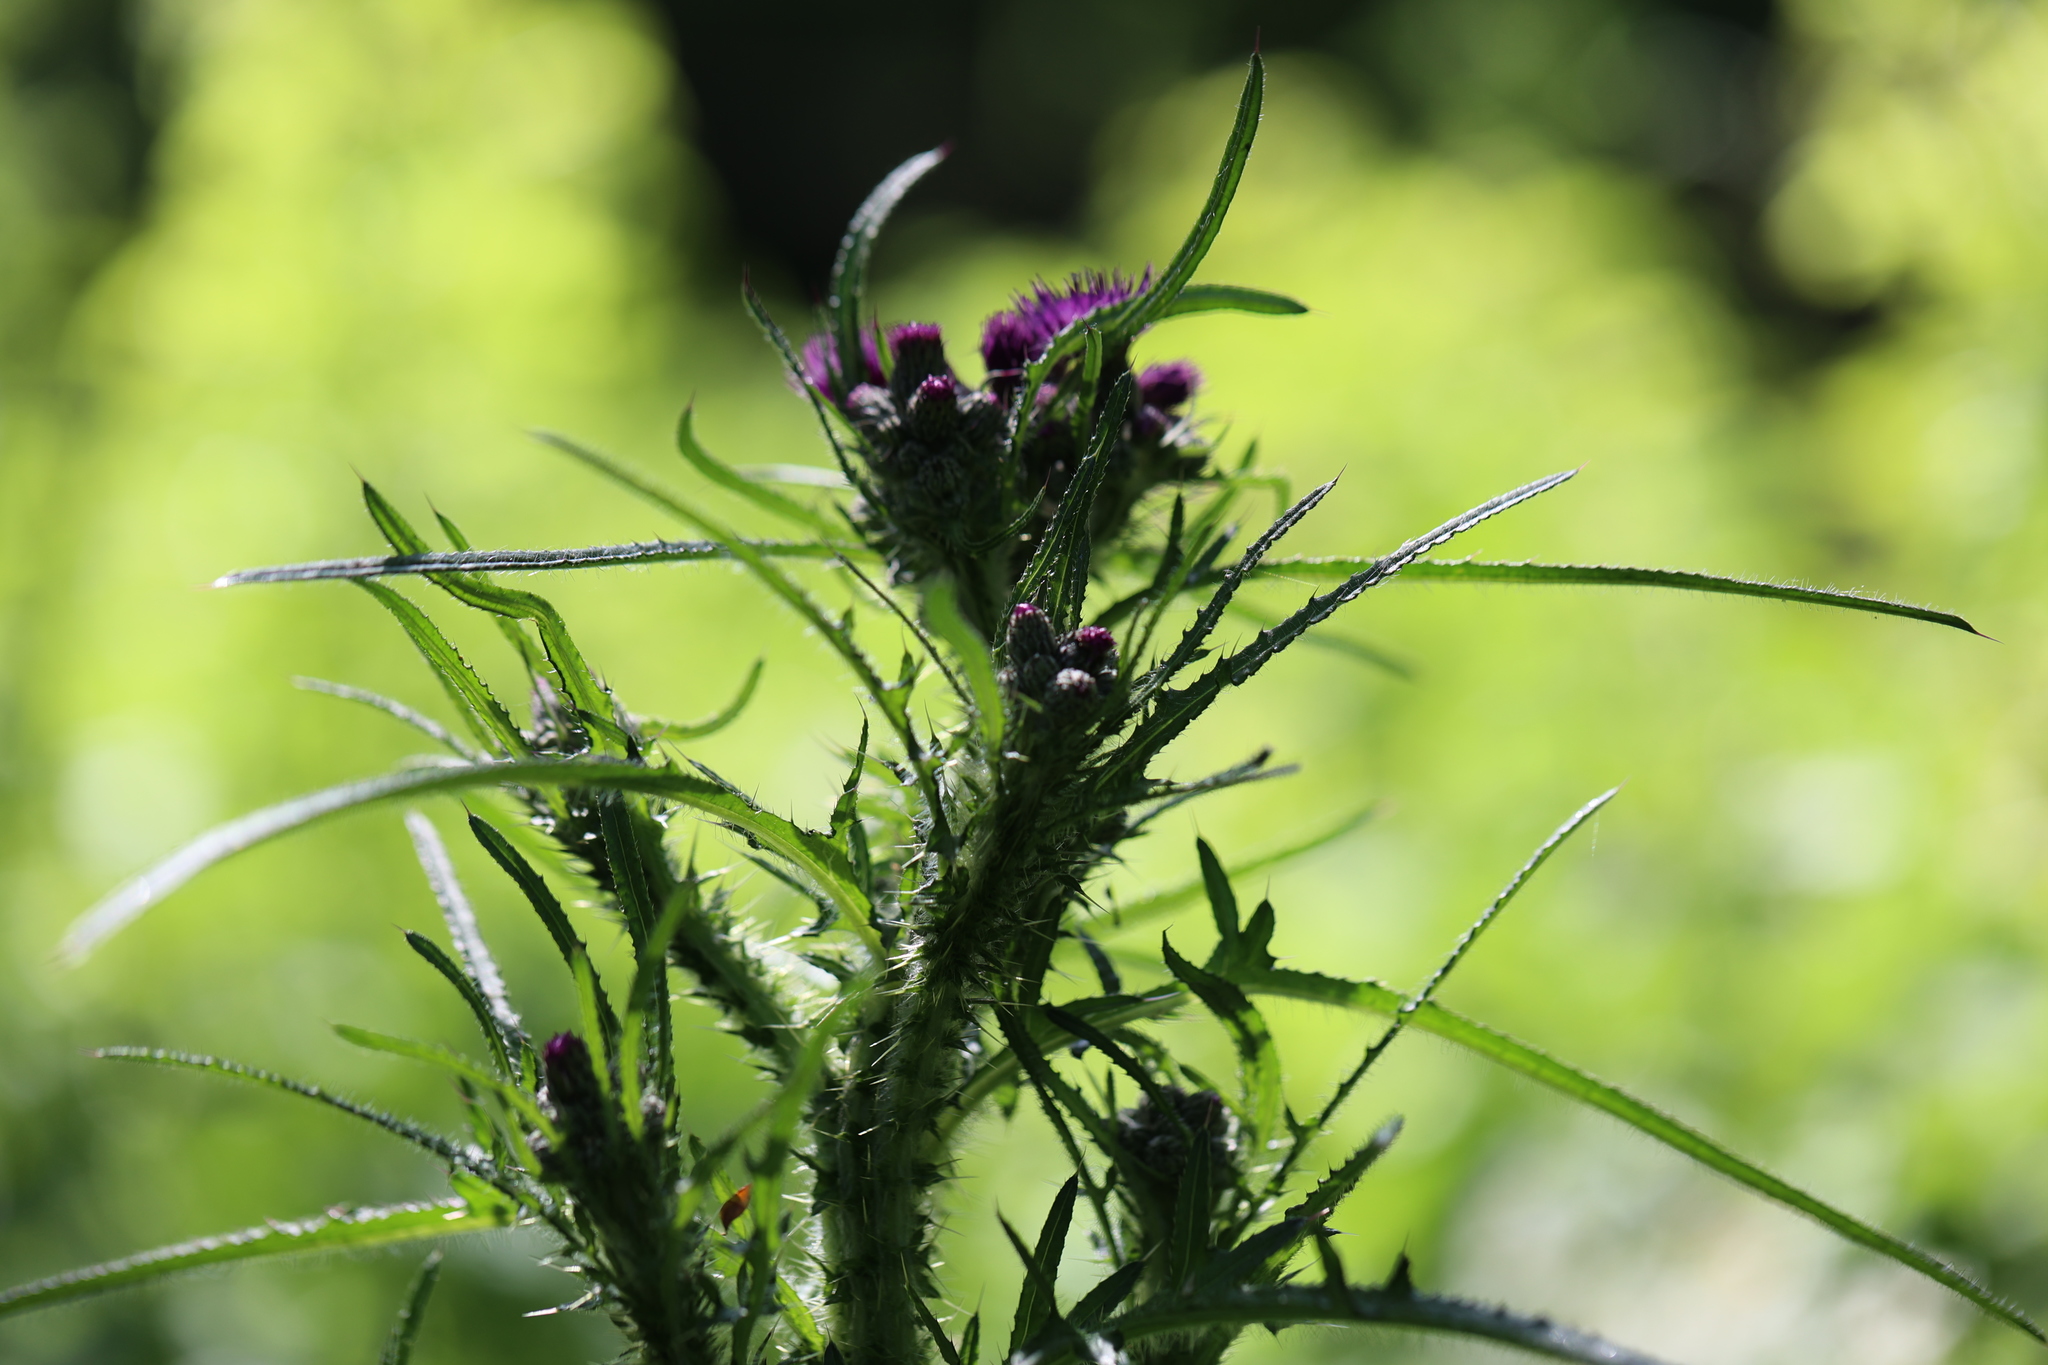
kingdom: Plantae
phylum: Tracheophyta
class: Magnoliopsida
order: Asterales
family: Asteraceae
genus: Cirsium
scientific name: Cirsium palustre
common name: Marsh thistle
